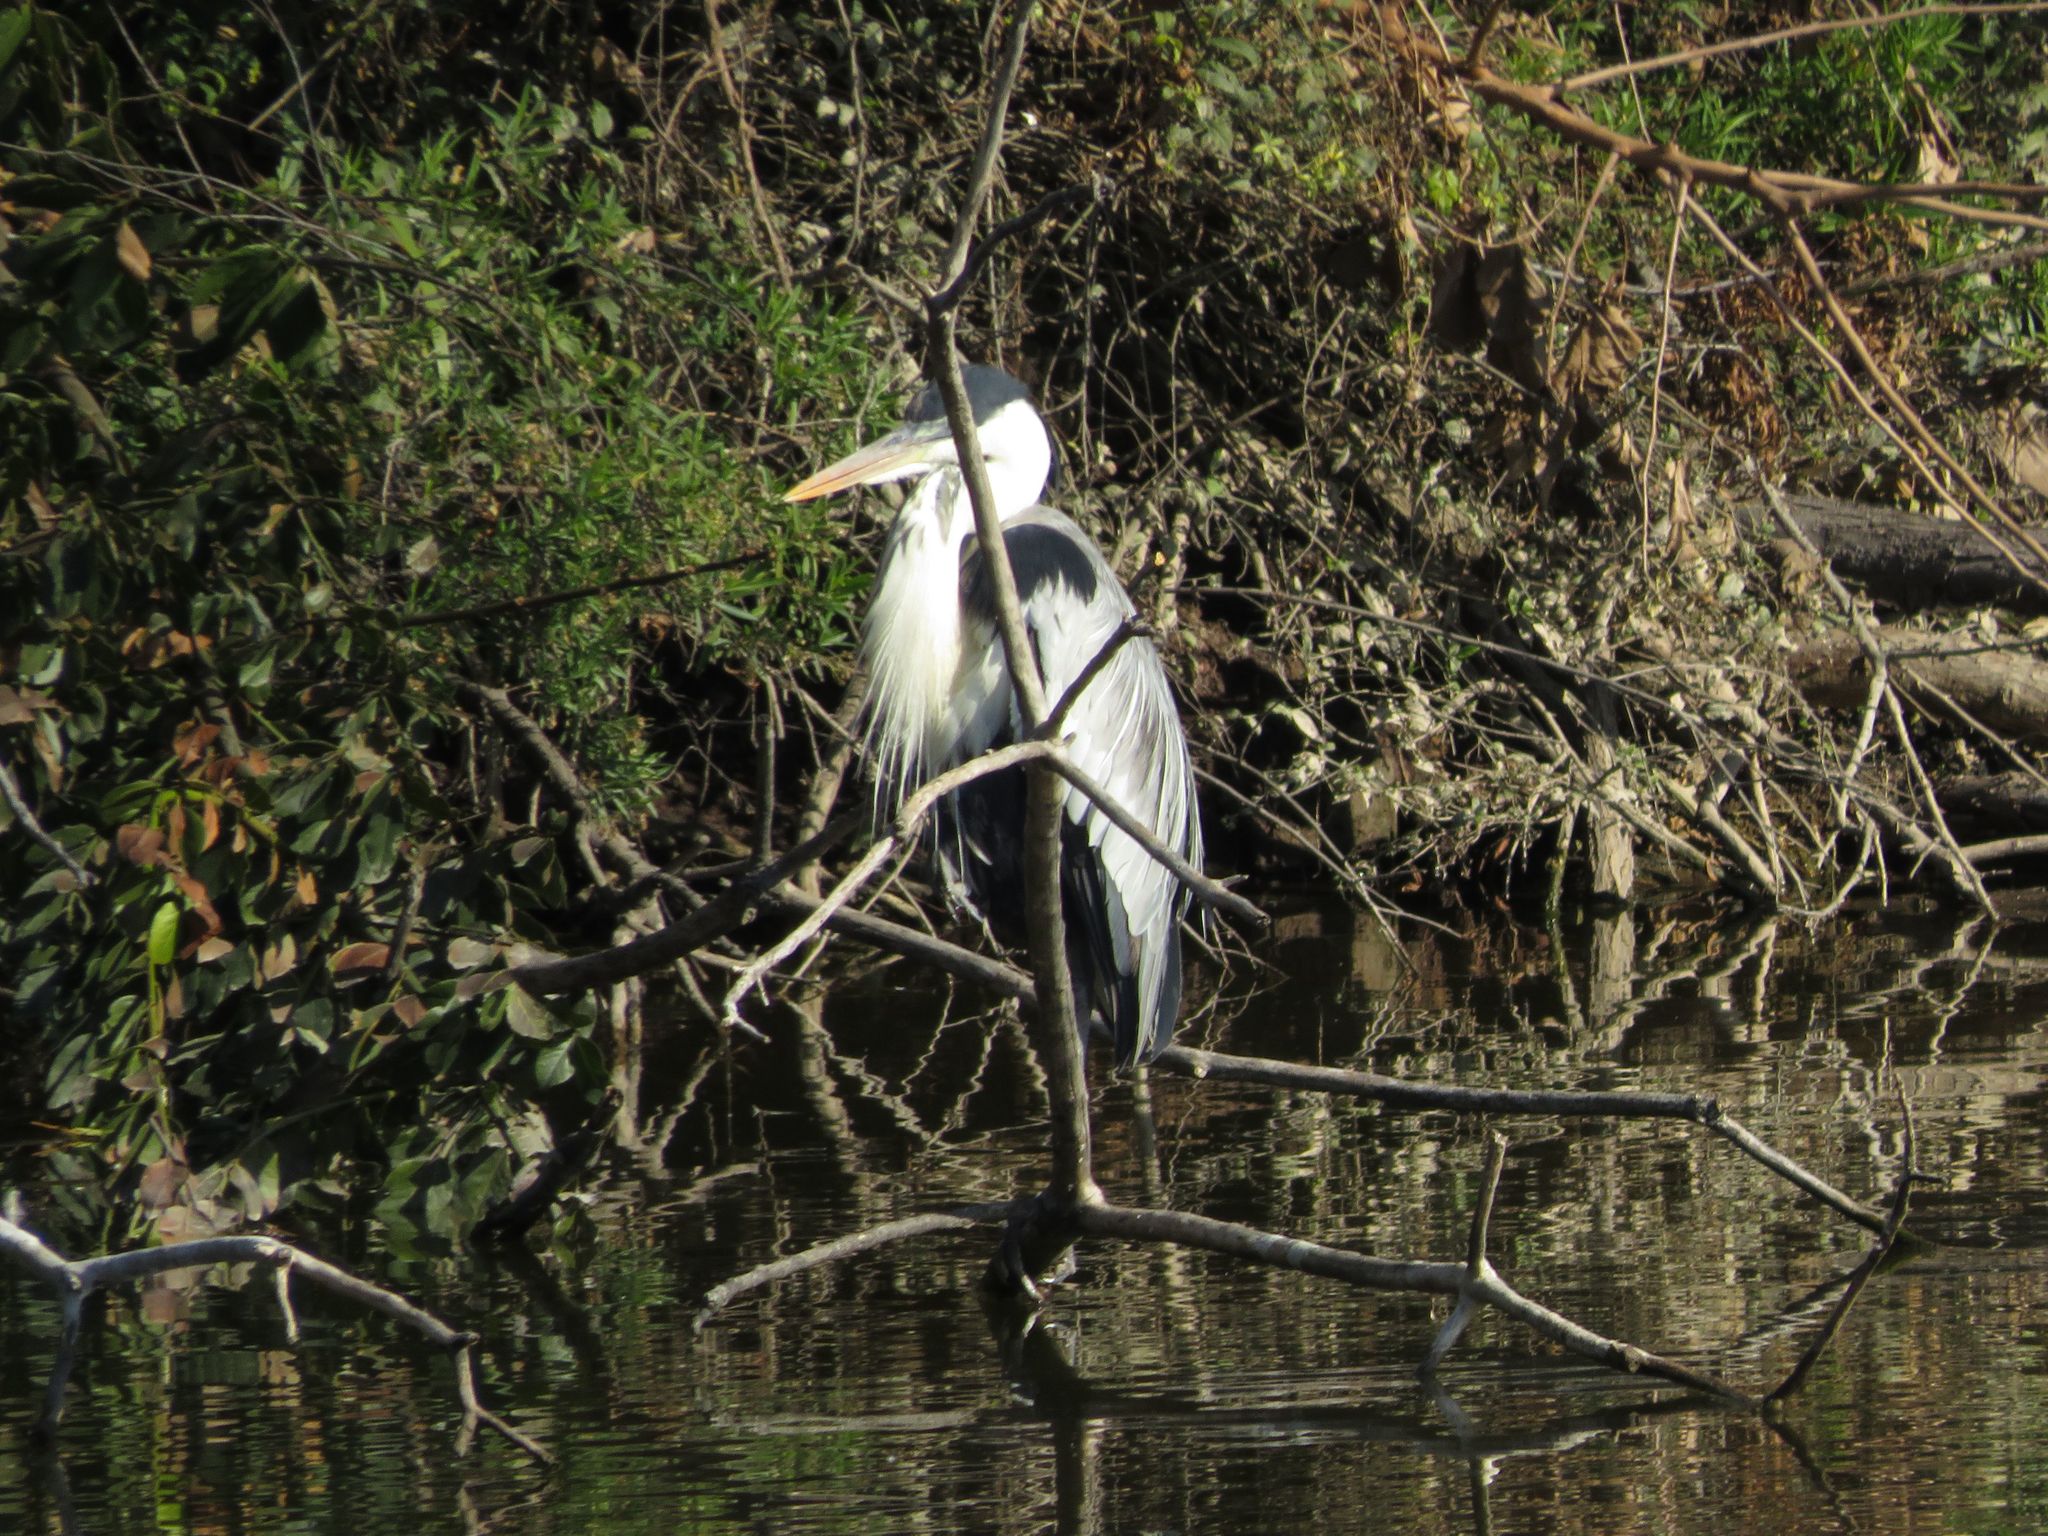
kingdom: Animalia
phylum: Chordata
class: Aves
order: Pelecaniformes
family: Ardeidae
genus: Ardea
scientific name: Ardea cocoi
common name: Cocoi heron
